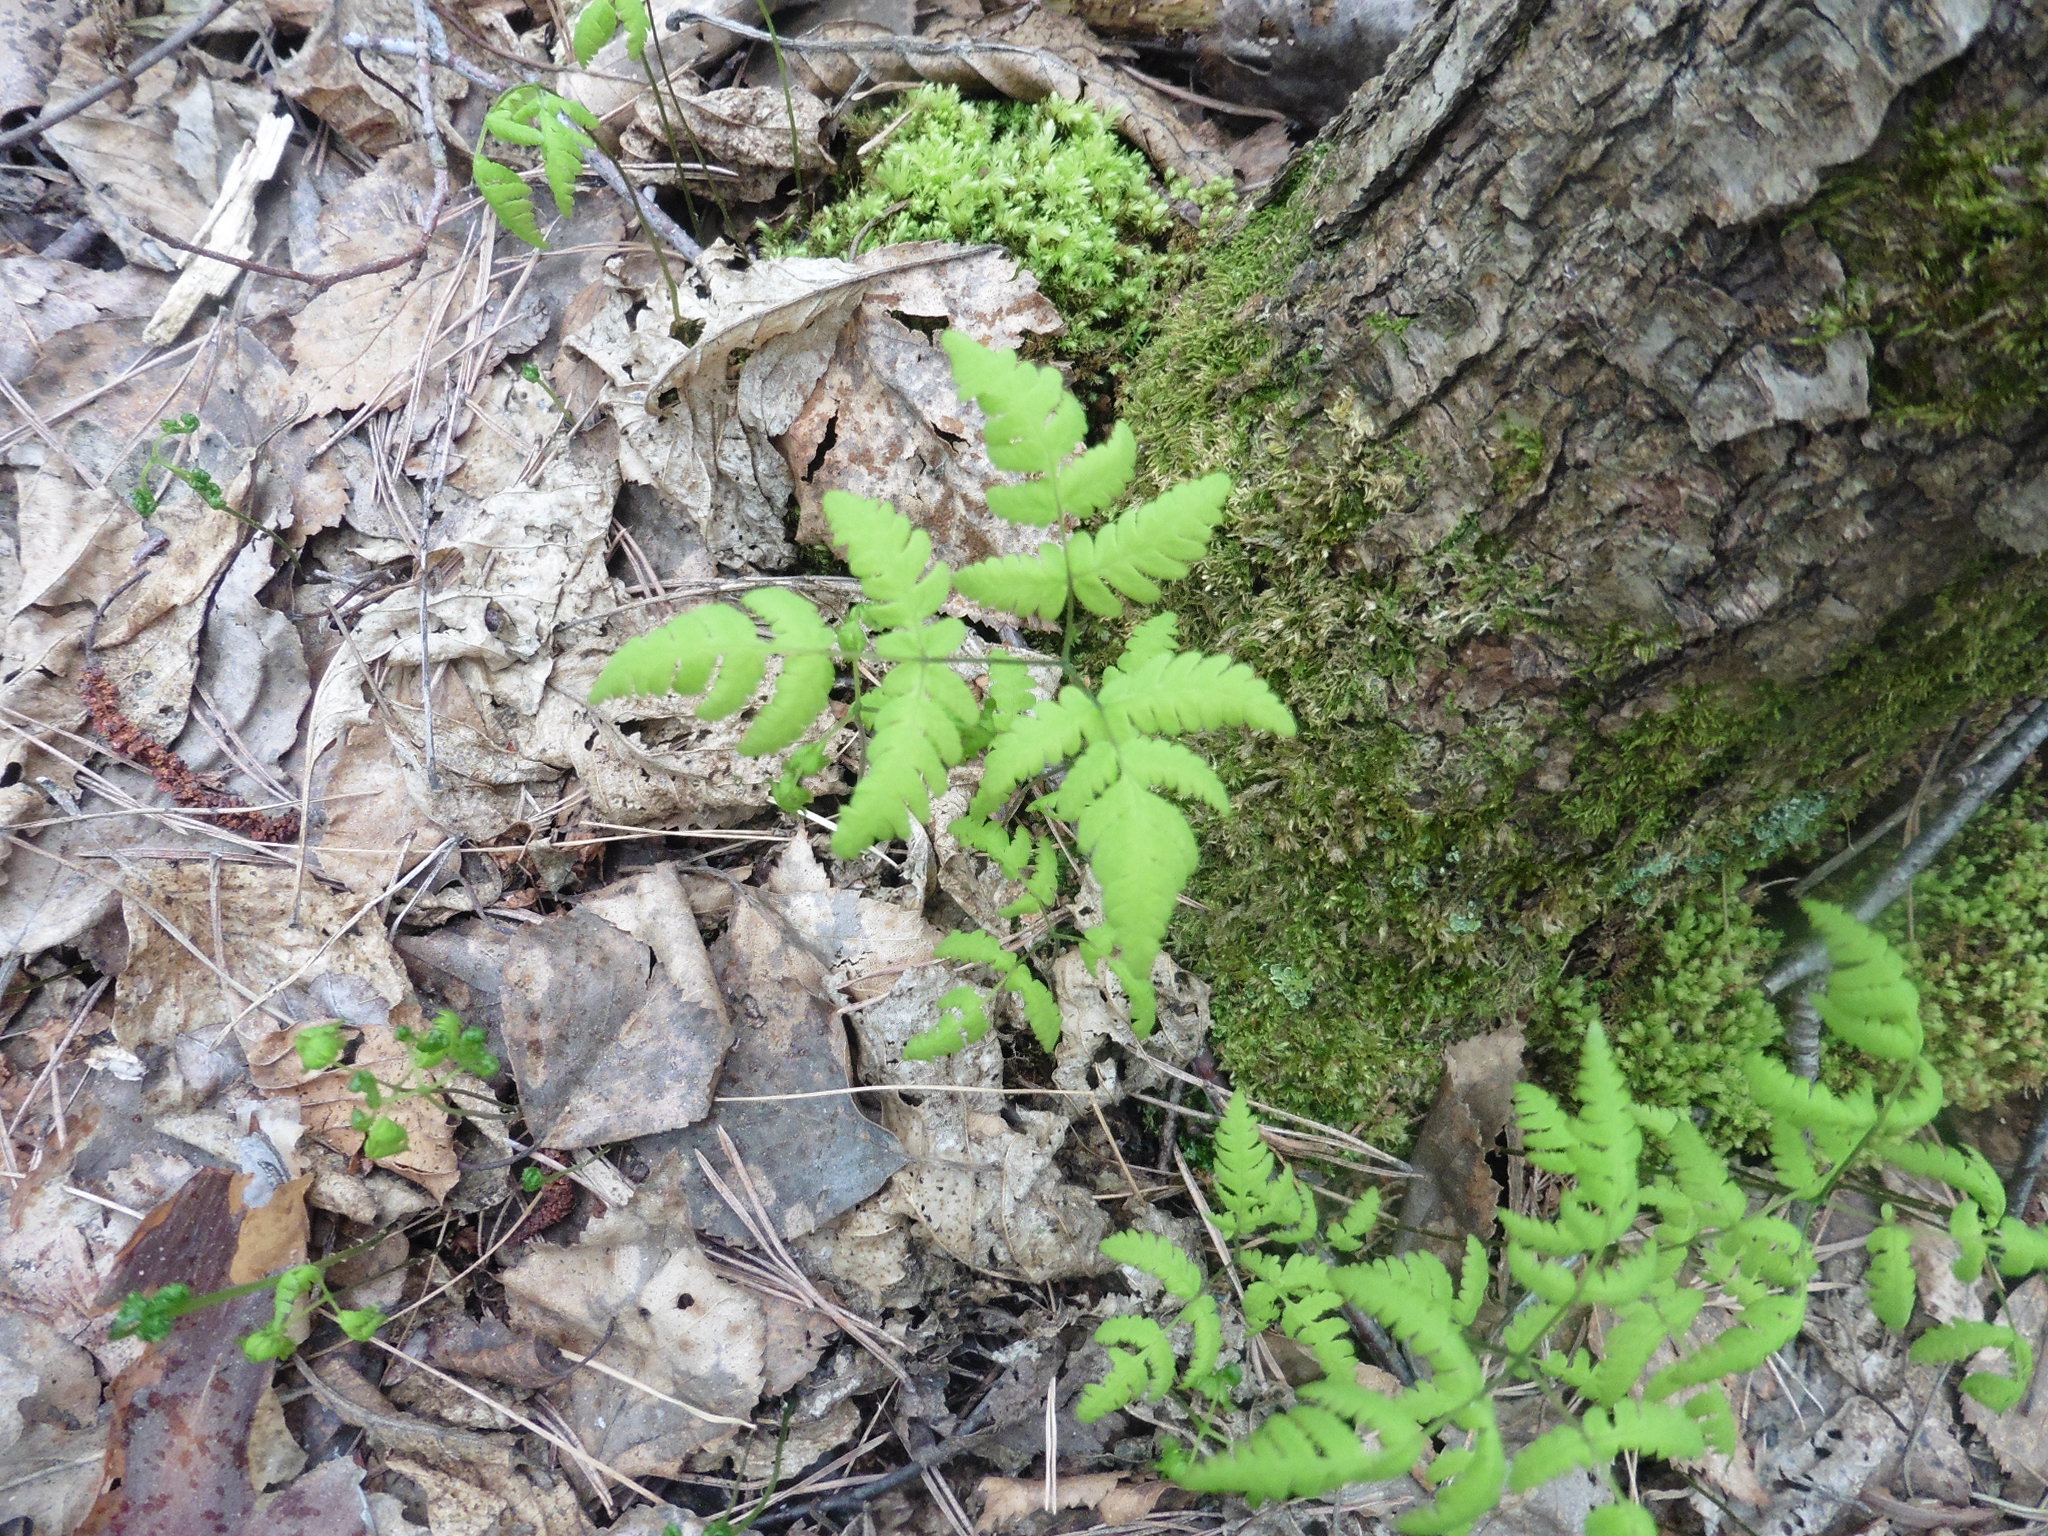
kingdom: Plantae
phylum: Tracheophyta
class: Polypodiopsida
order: Polypodiales
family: Cystopteridaceae
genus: Gymnocarpium
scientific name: Gymnocarpium dryopteris
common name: Oak fern
